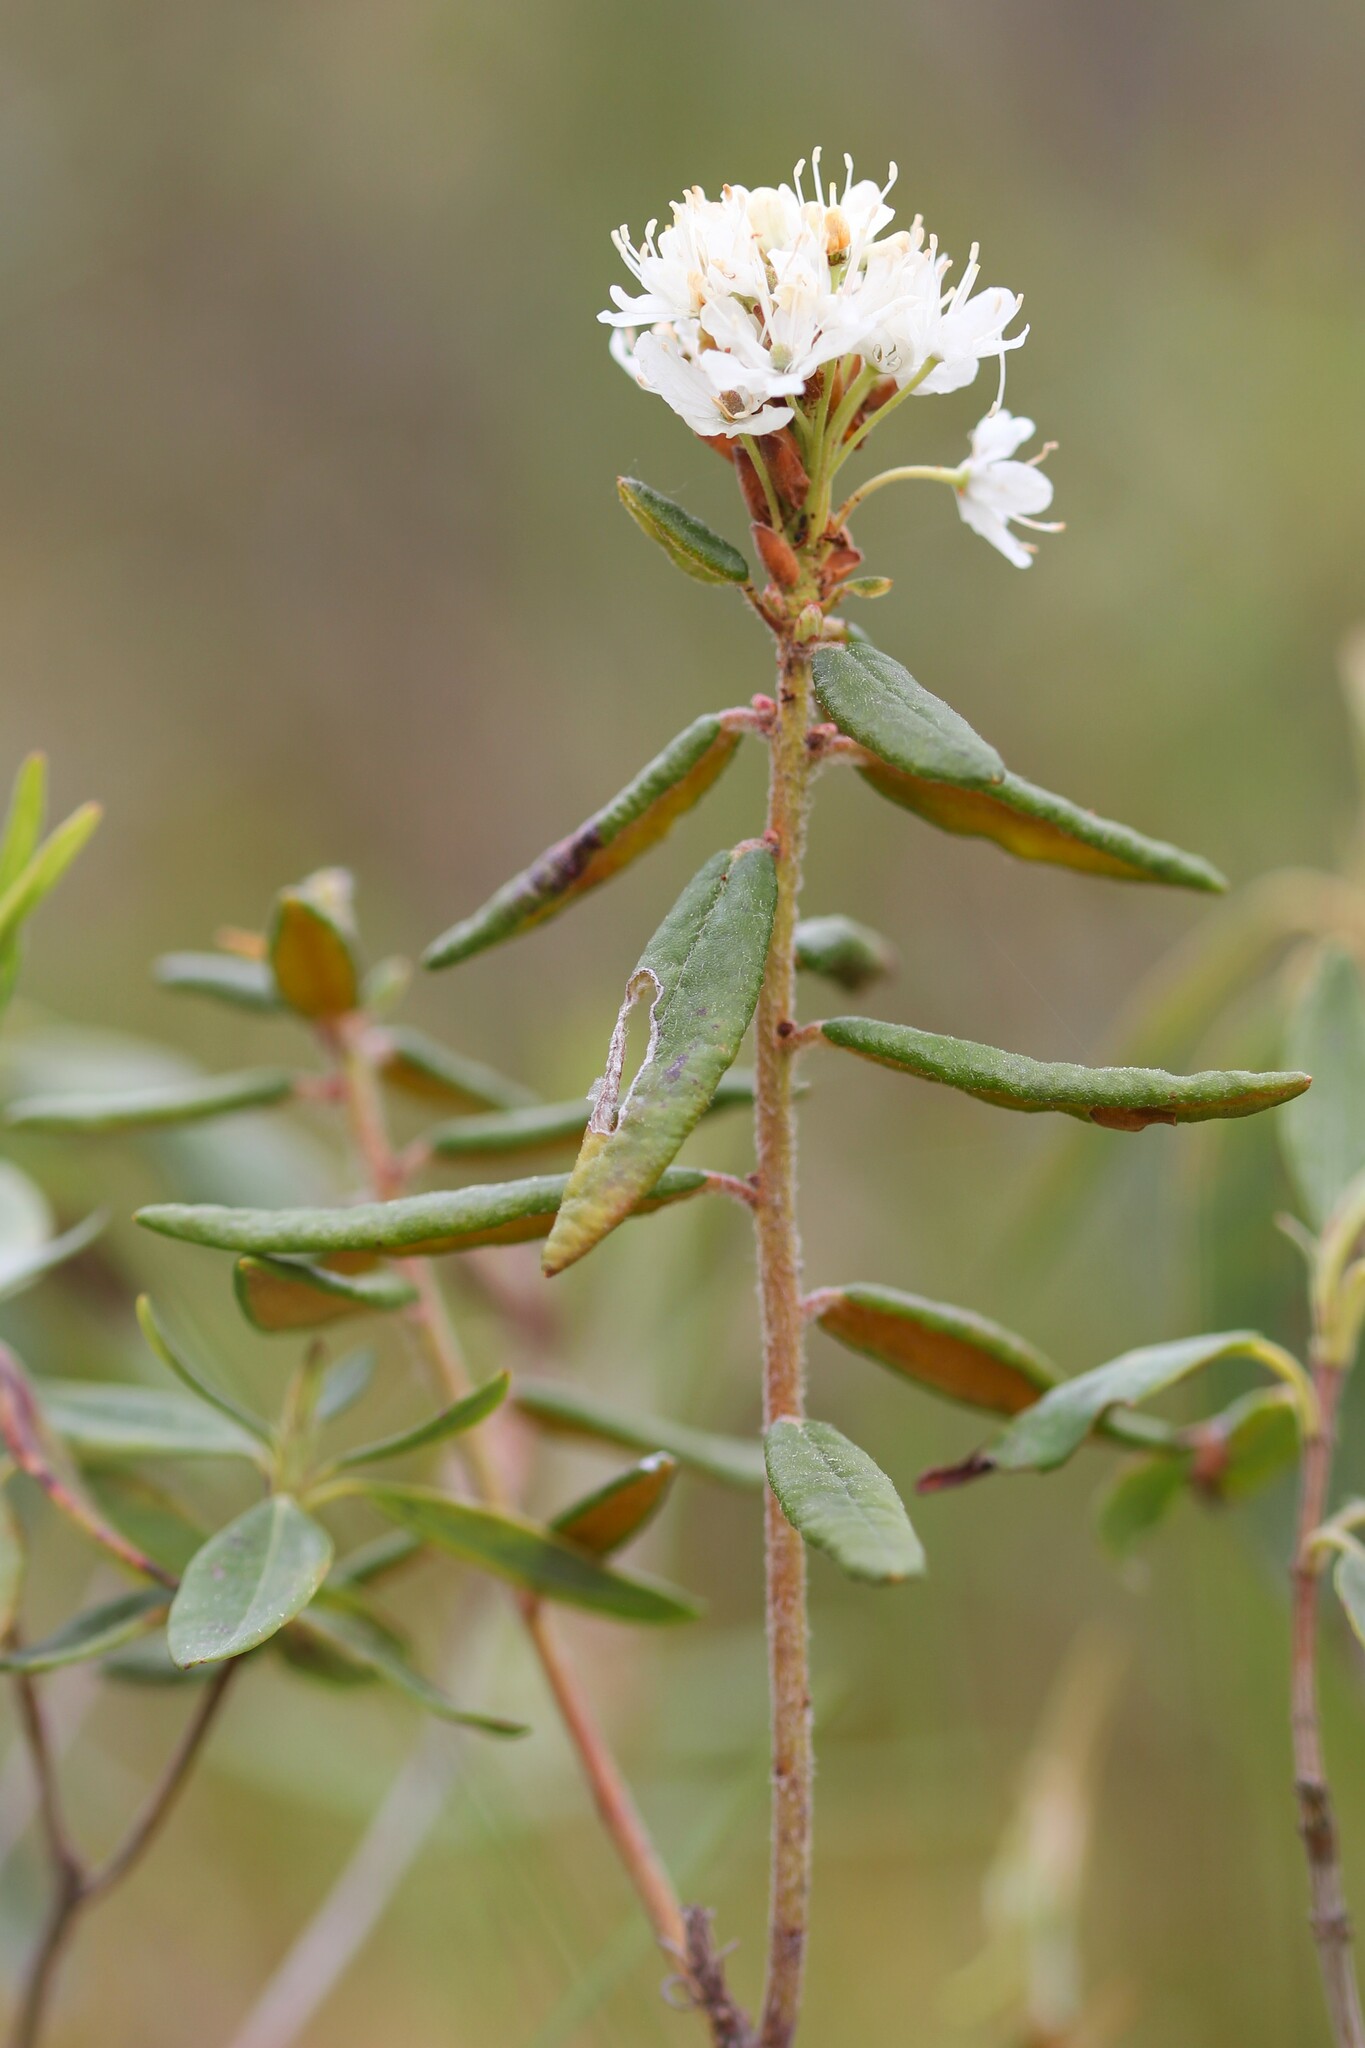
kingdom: Plantae
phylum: Tracheophyta
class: Magnoliopsida
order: Ericales
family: Ericaceae
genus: Rhododendron
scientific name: Rhododendron groenlandicum
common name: Bog labrador tea
